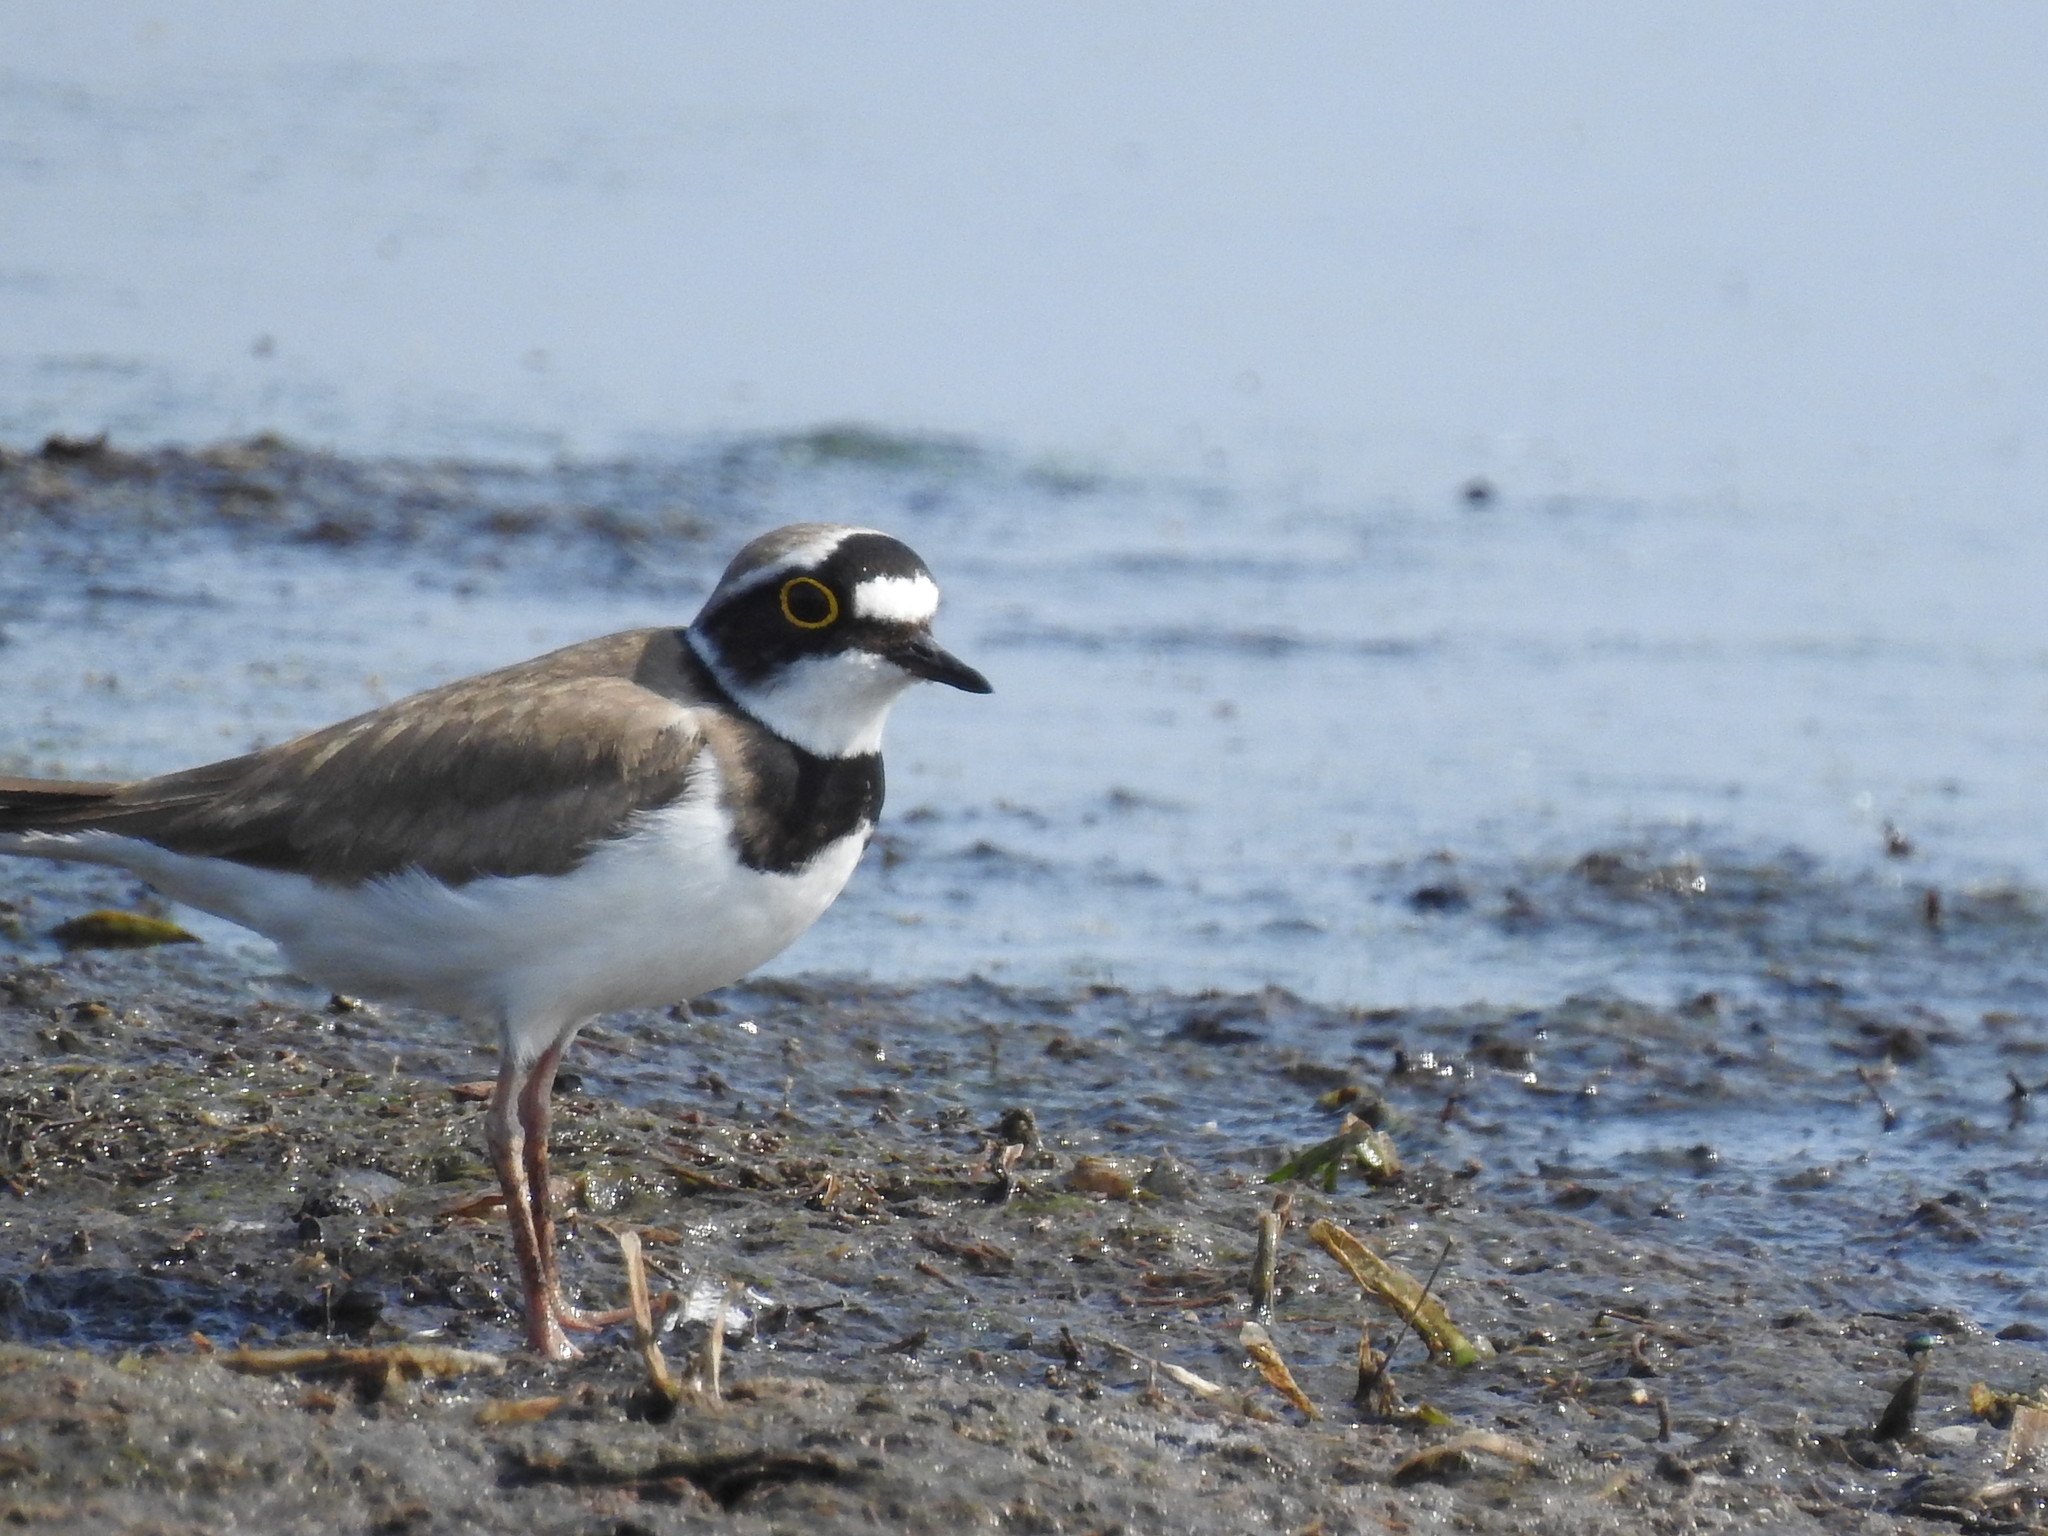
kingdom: Animalia
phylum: Chordata
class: Aves
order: Charadriiformes
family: Charadriidae
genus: Charadrius
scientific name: Charadrius dubius
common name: Little ringed plover
